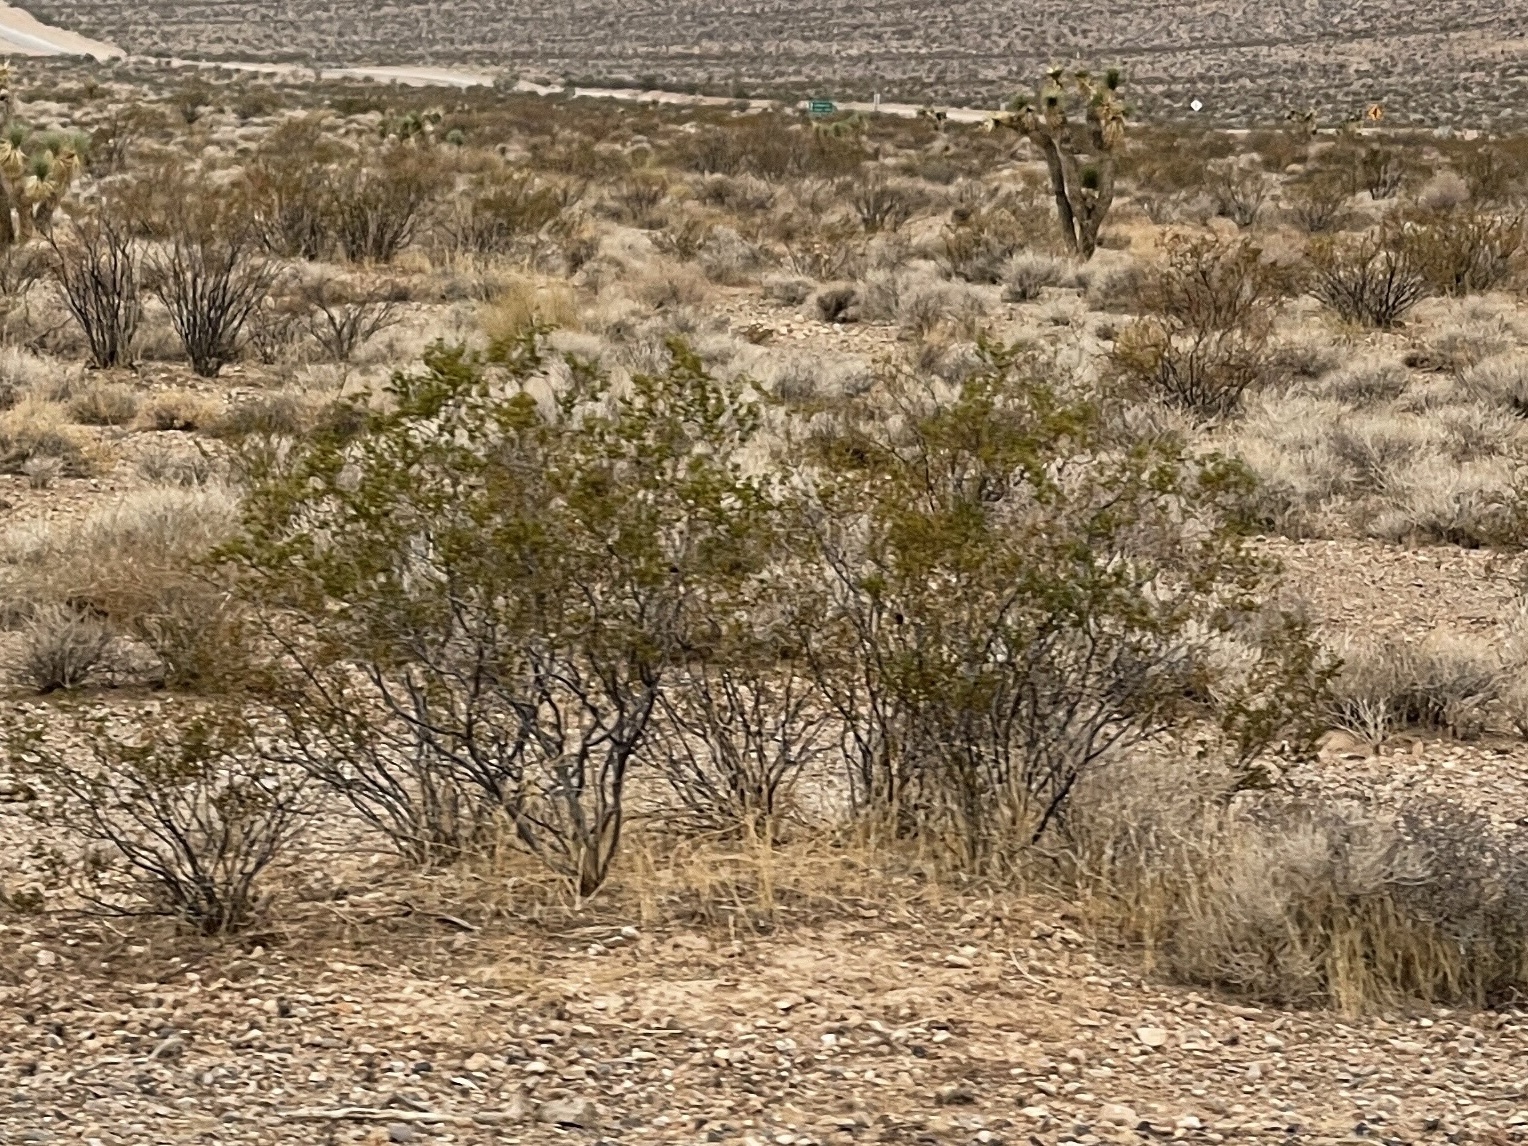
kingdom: Plantae
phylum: Tracheophyta
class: Magnoliopsida
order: Zygophyllales
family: Zygophyllaceae
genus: Larrea
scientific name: Larrea tridentata
